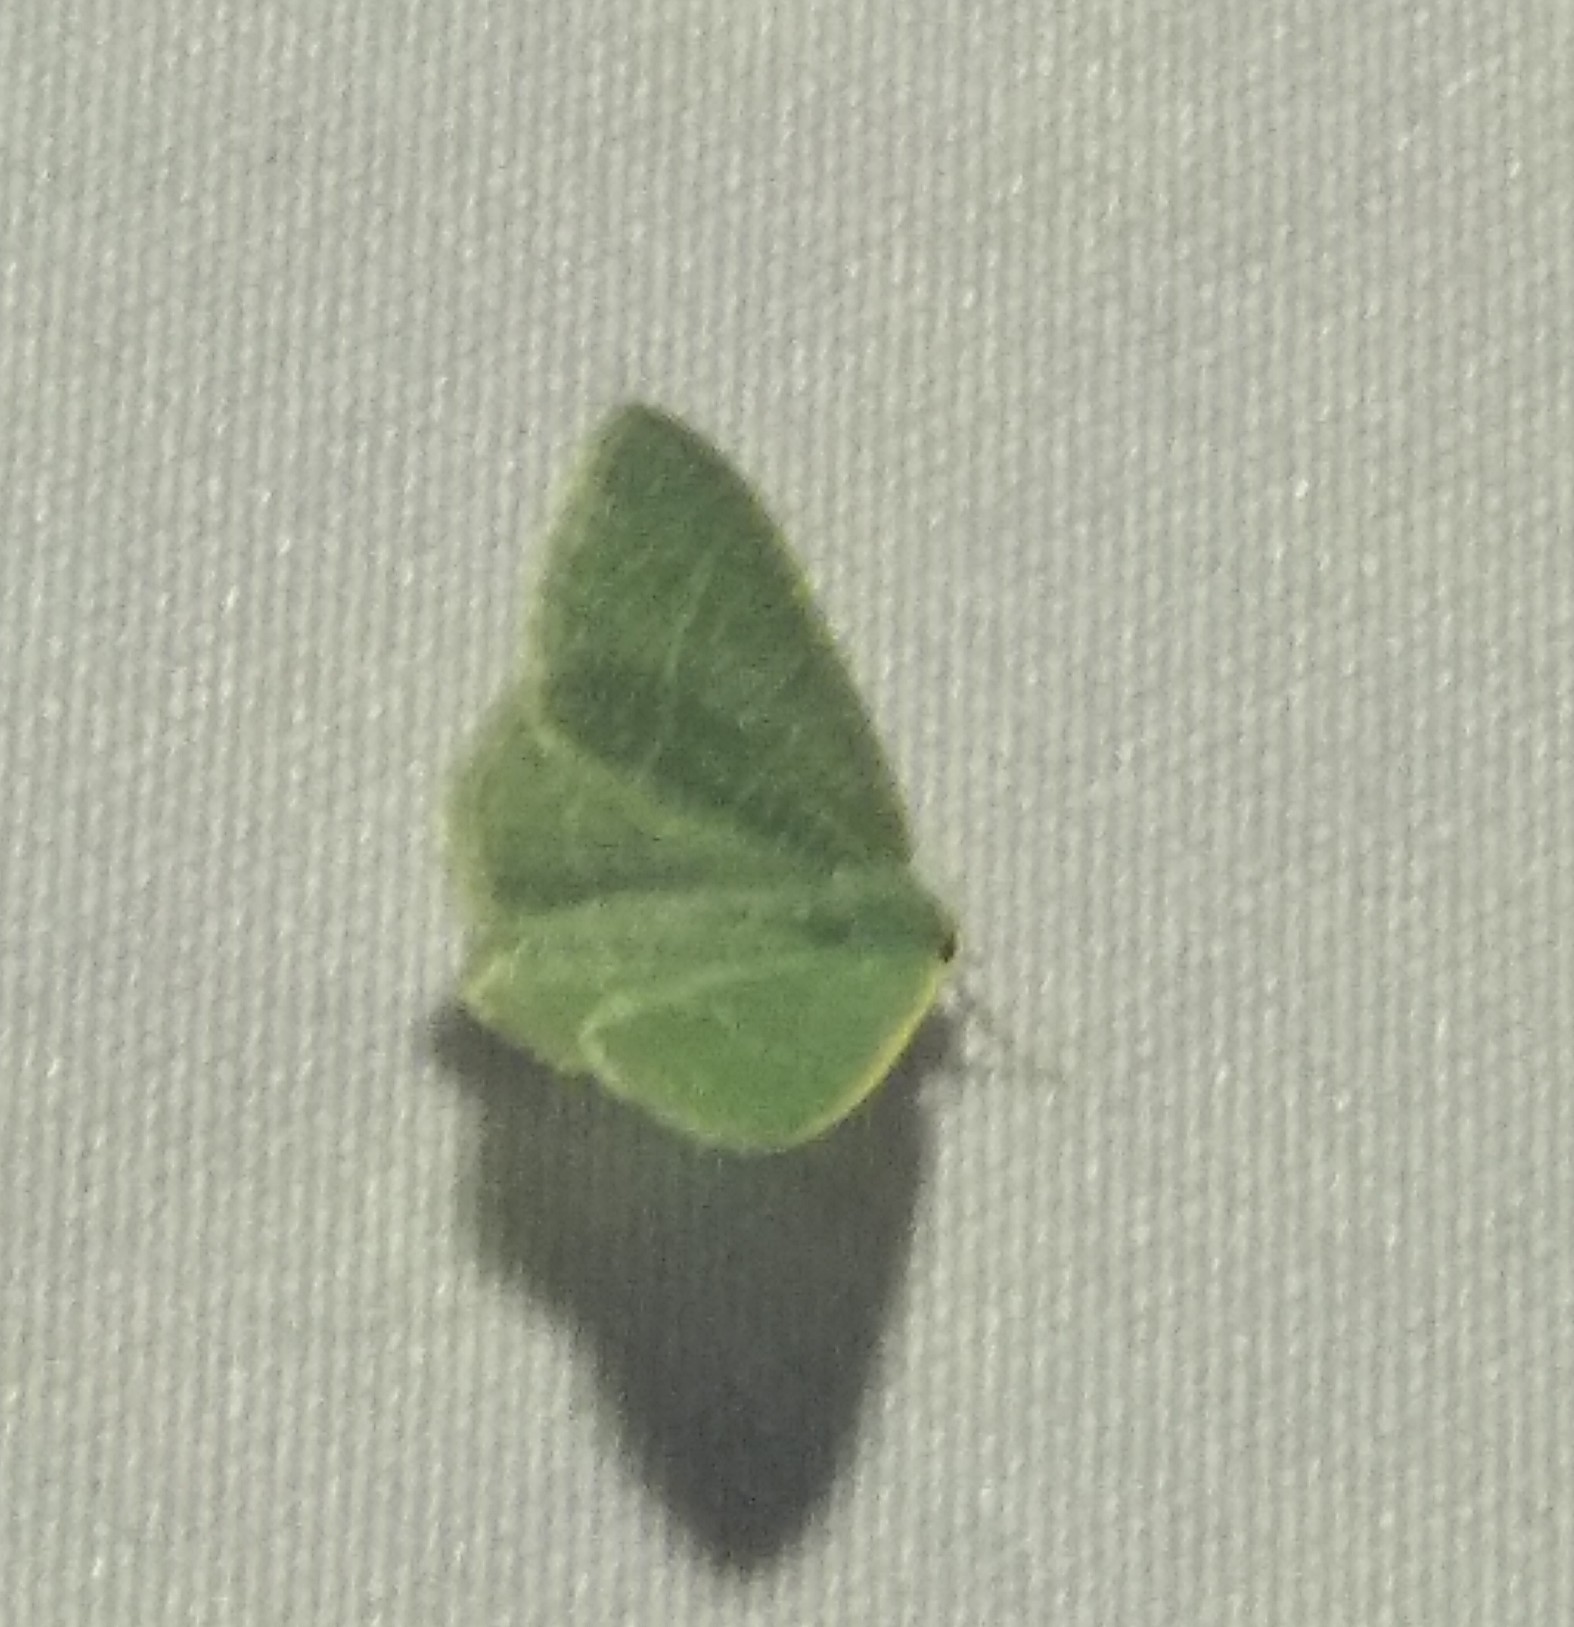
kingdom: Animalia
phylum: Arthropoda
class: Insecta
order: Lepidoptera
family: Geometridae
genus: Chlorissa
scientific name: Chlorissa etruscaria
